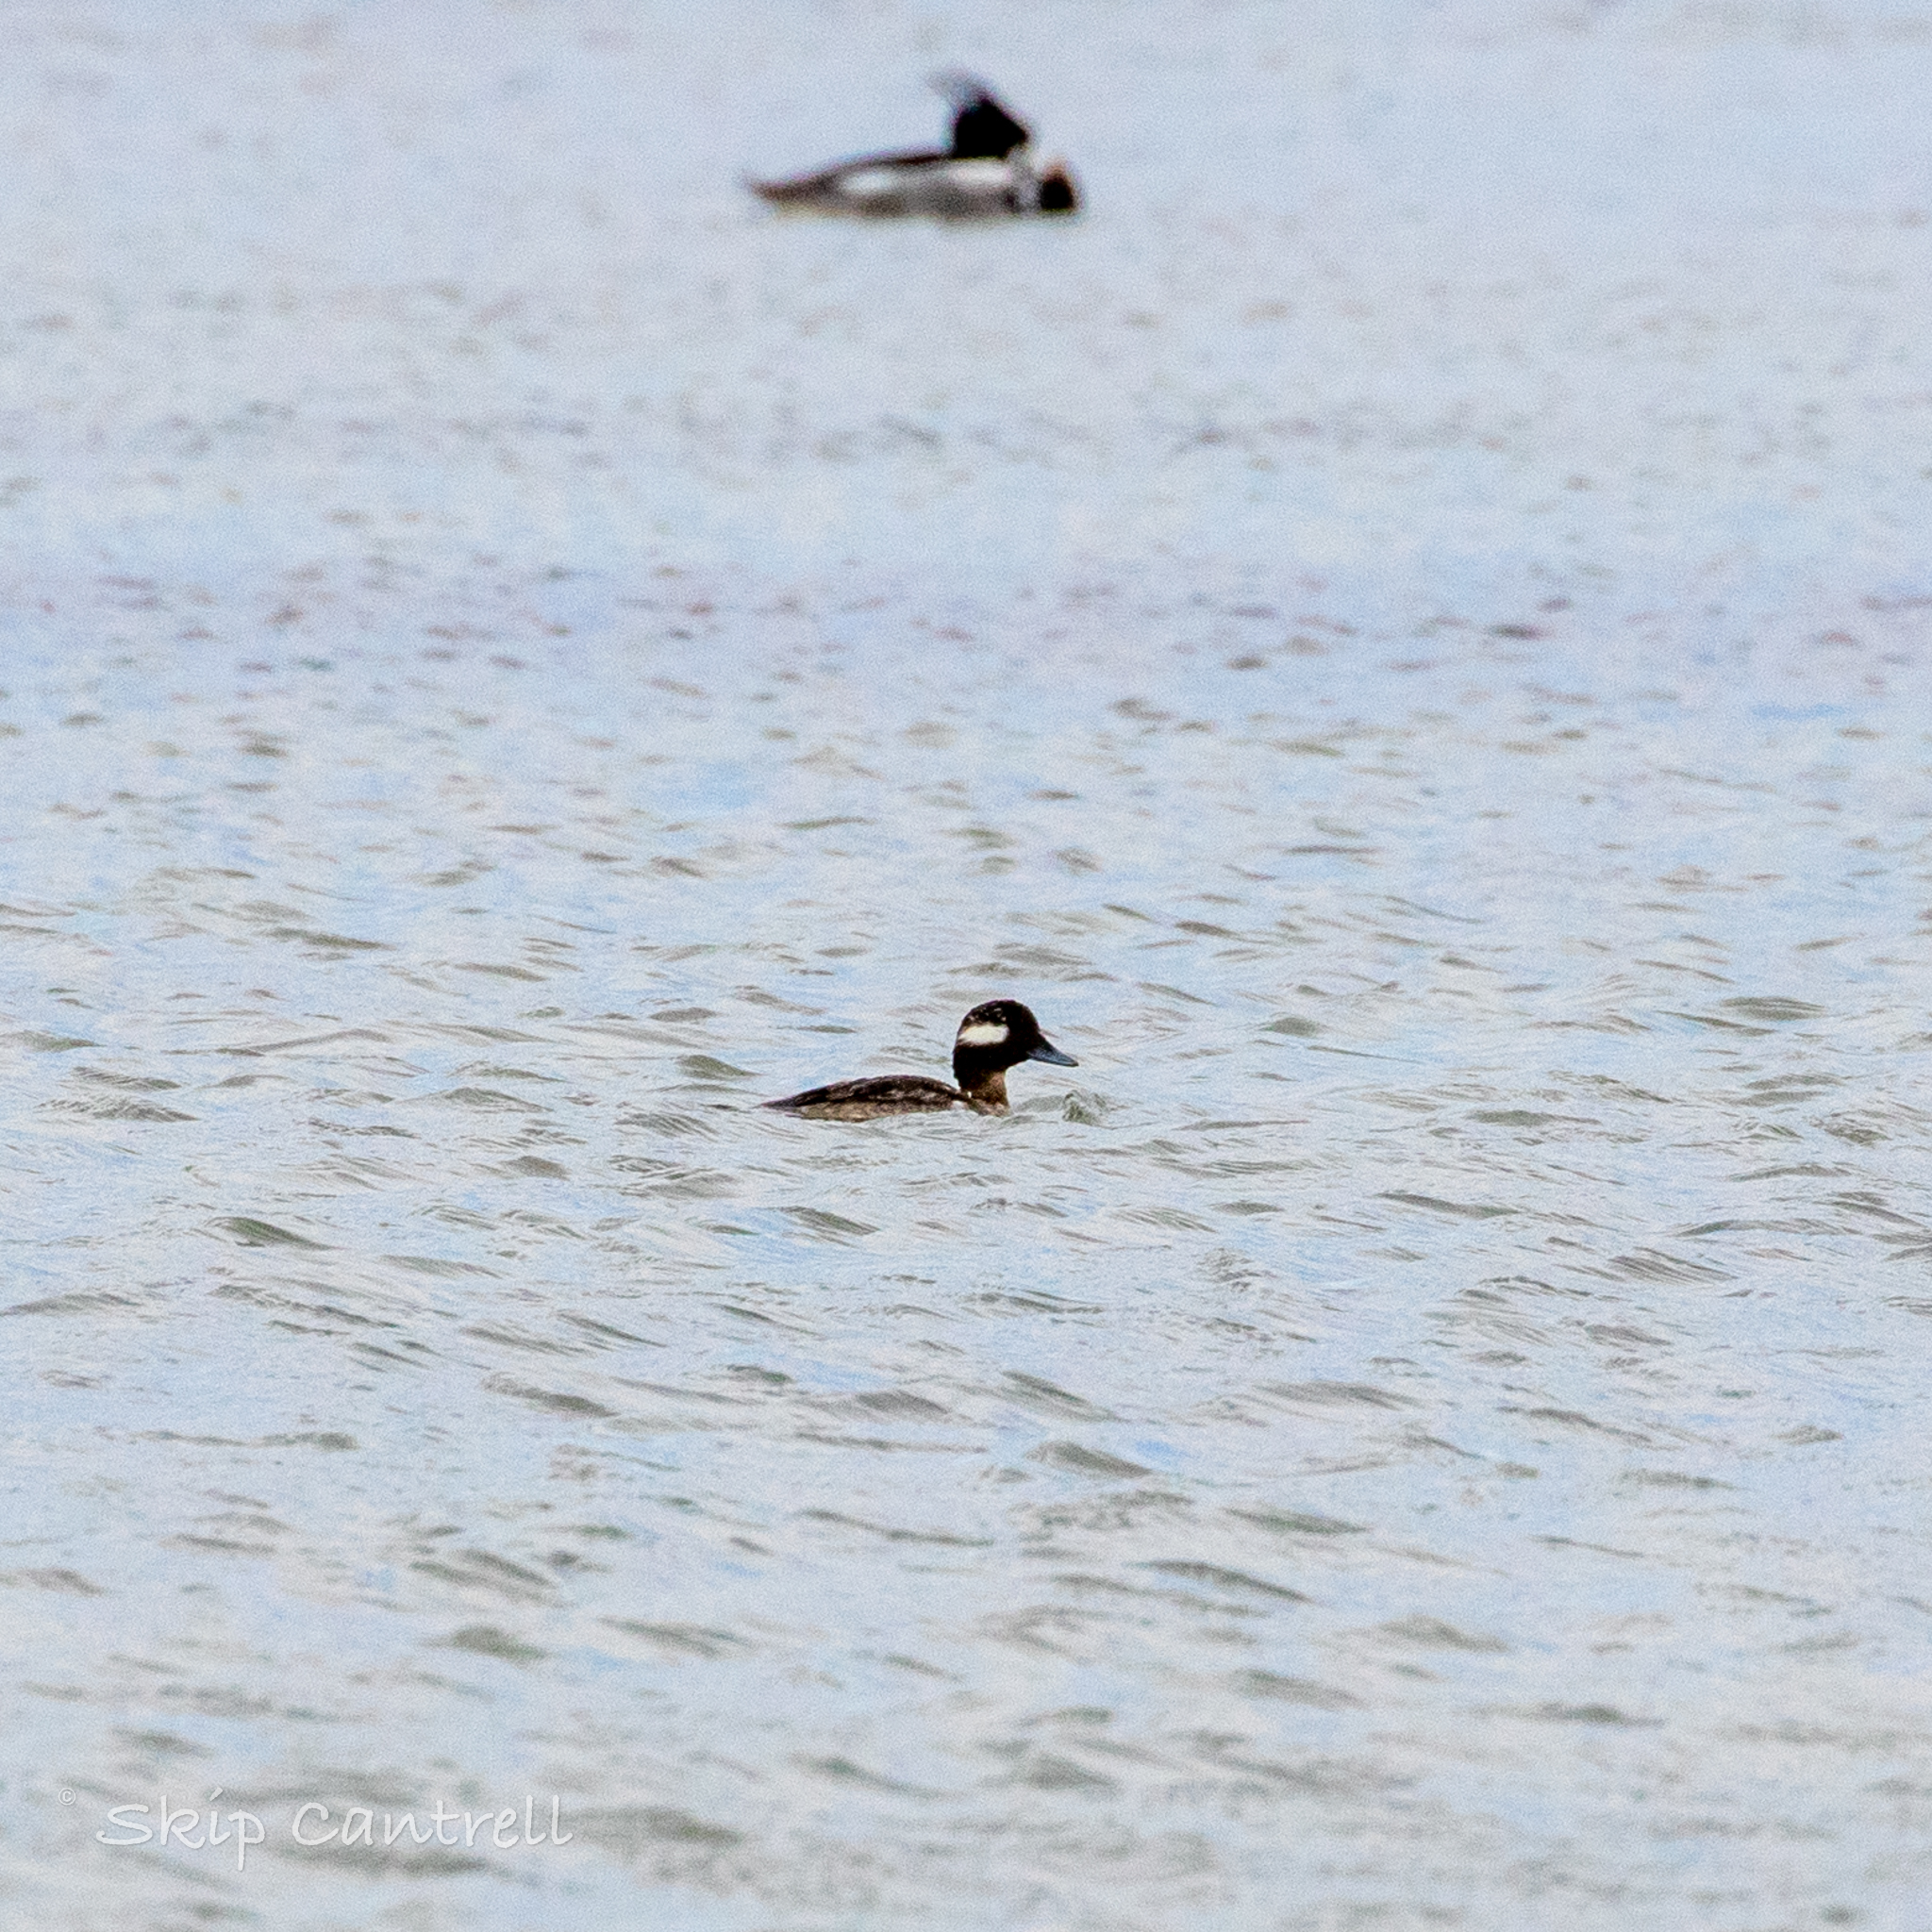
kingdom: Animalia
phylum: Chordata
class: Aves
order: Anseriformes
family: Anatidae
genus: Bucephala
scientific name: Bucephala albeola
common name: Bufflehead
